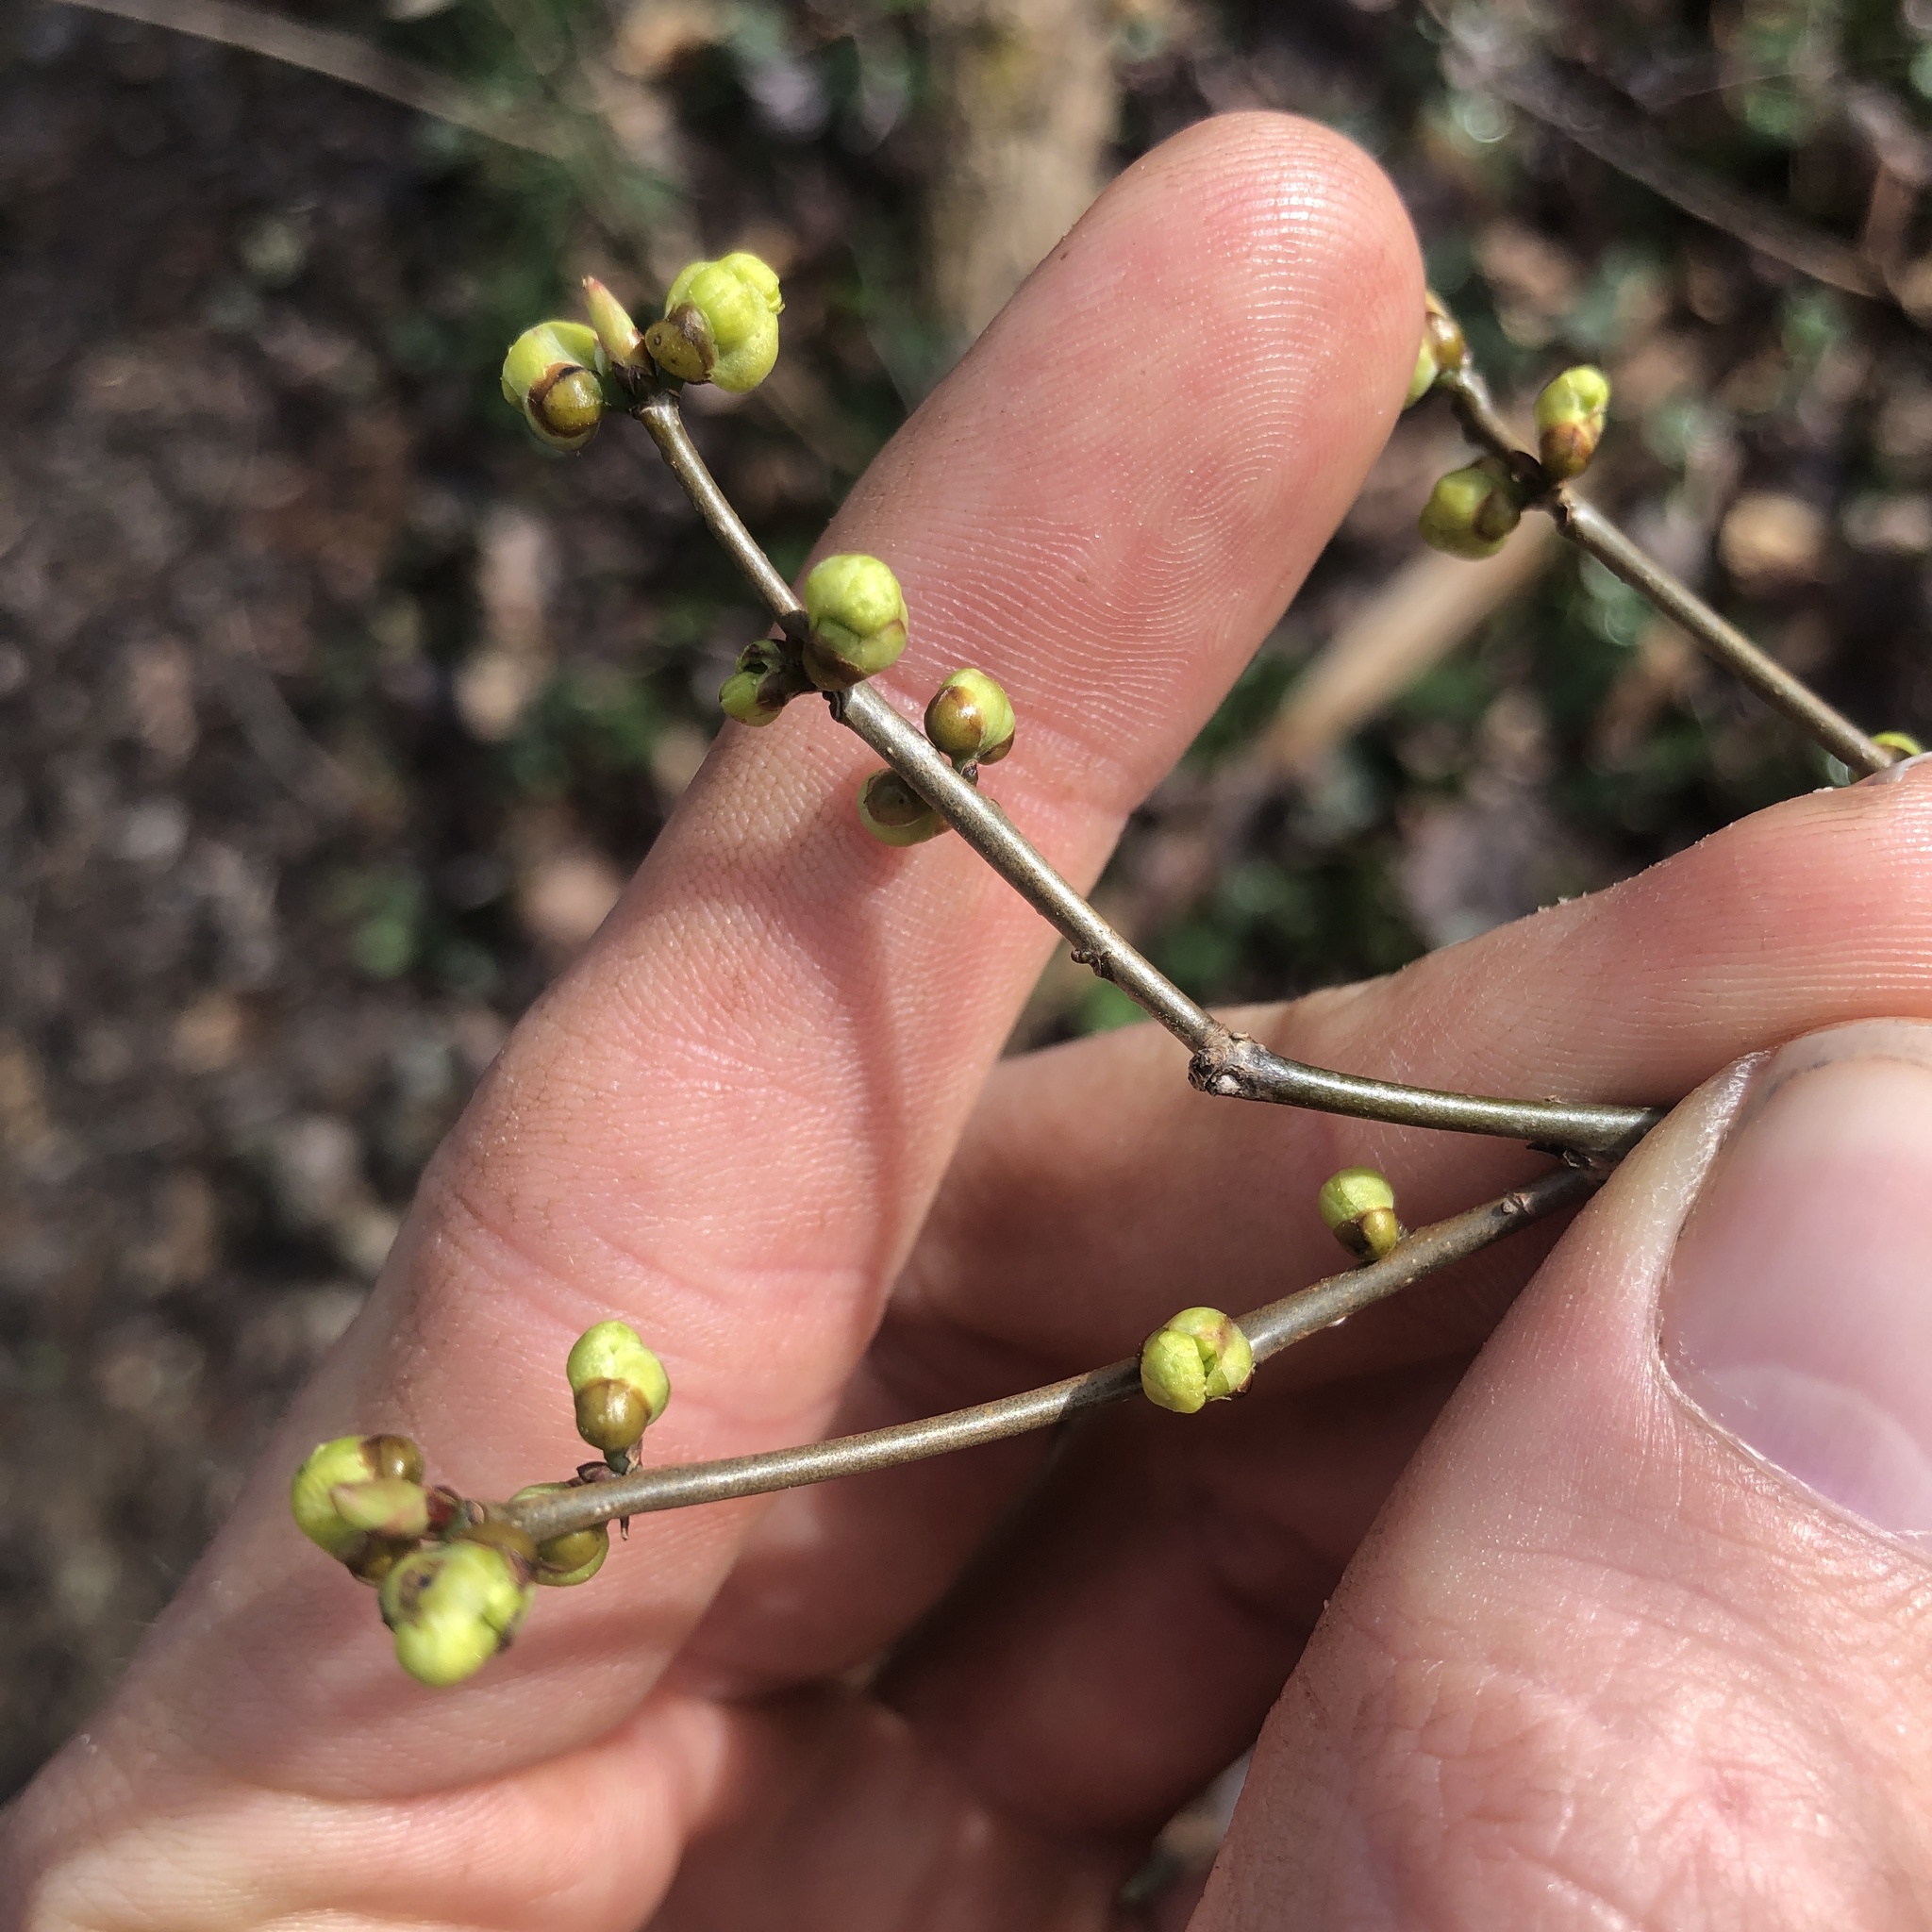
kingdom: Plantae
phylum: Tracheophyta
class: Magnoliopsida
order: Laurales
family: Lauraceae
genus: Lindera
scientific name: Lindera benzoin
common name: Spicebush
